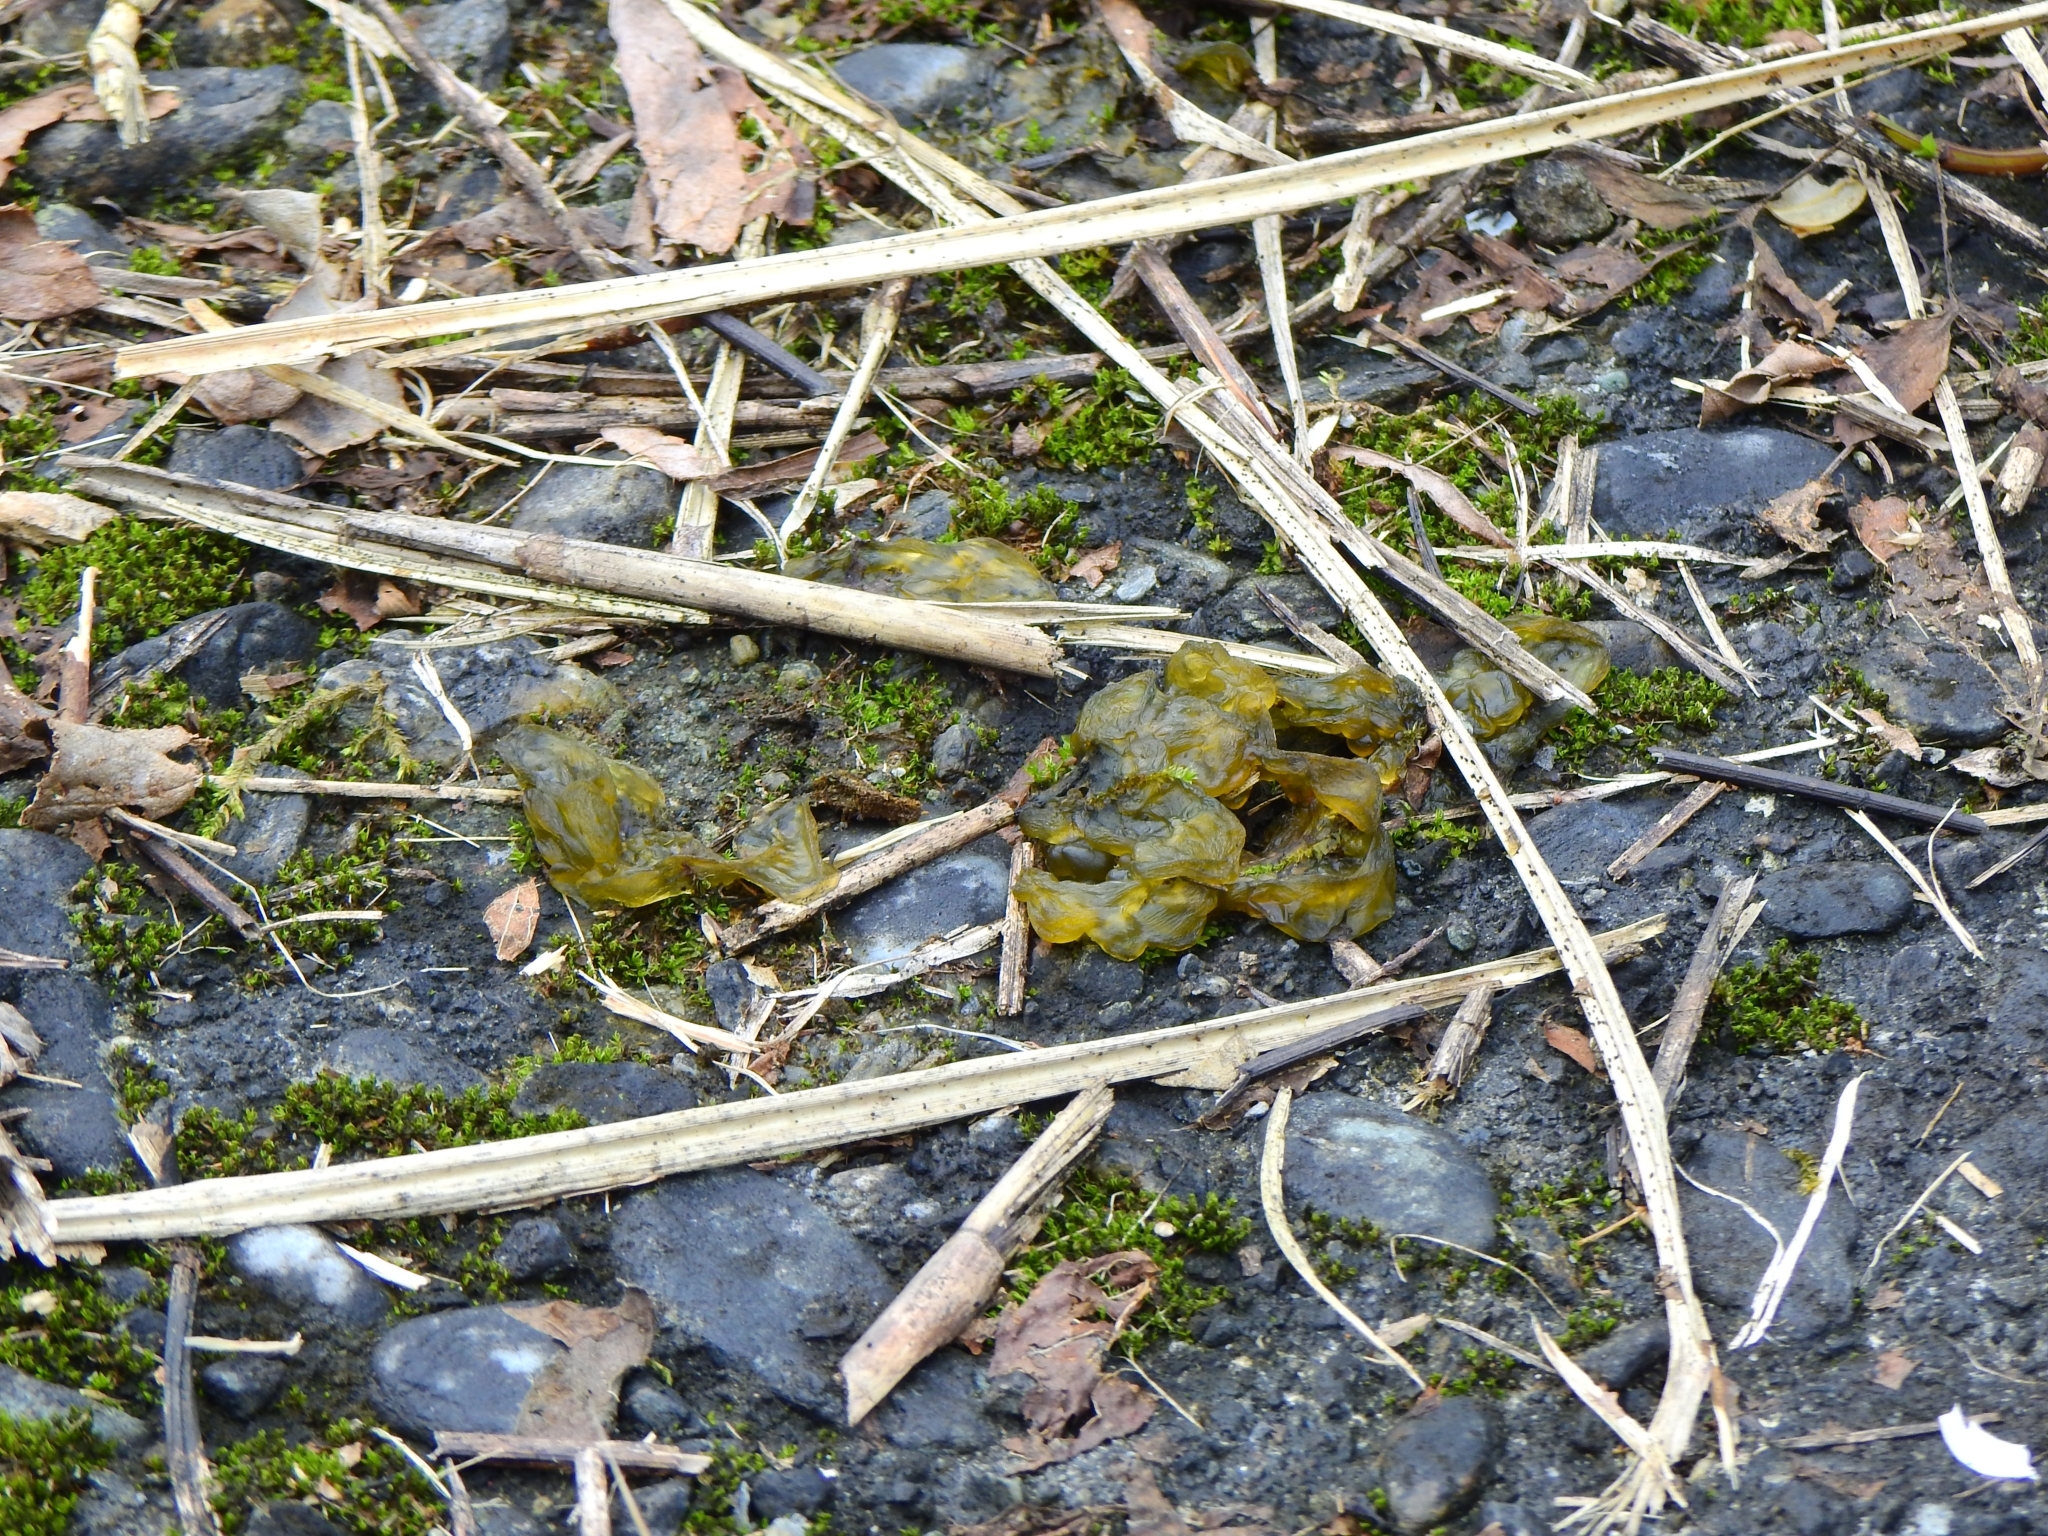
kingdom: Bacteria
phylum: Cyanobacteria
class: Cyanobacteriia
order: Cyanobacteriales
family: Nostocaceae
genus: Nostoc
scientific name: Nostoc commune
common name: Star jelly
